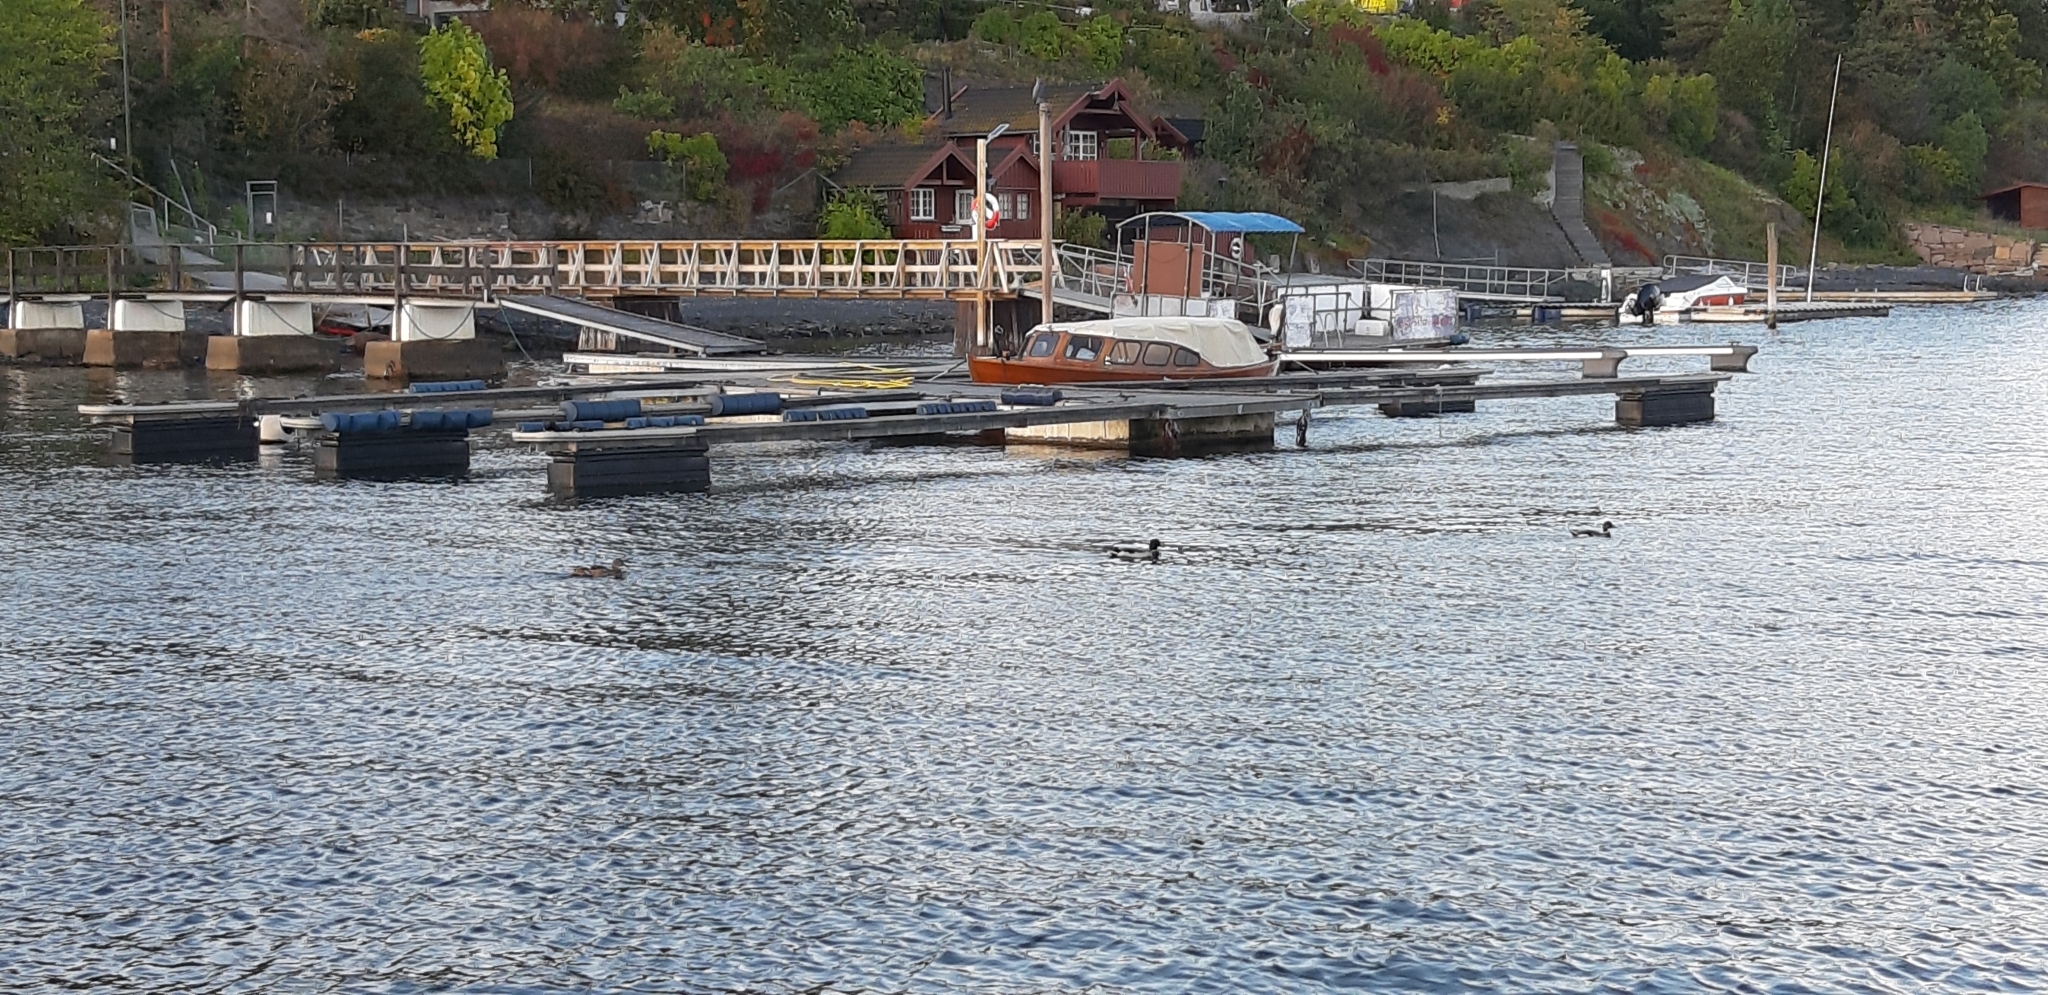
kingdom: Animalia
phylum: Chordata
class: Aves
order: Anseriformes
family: Anatidae
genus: Anas
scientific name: Anas platyrhynchos
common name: Mallard
